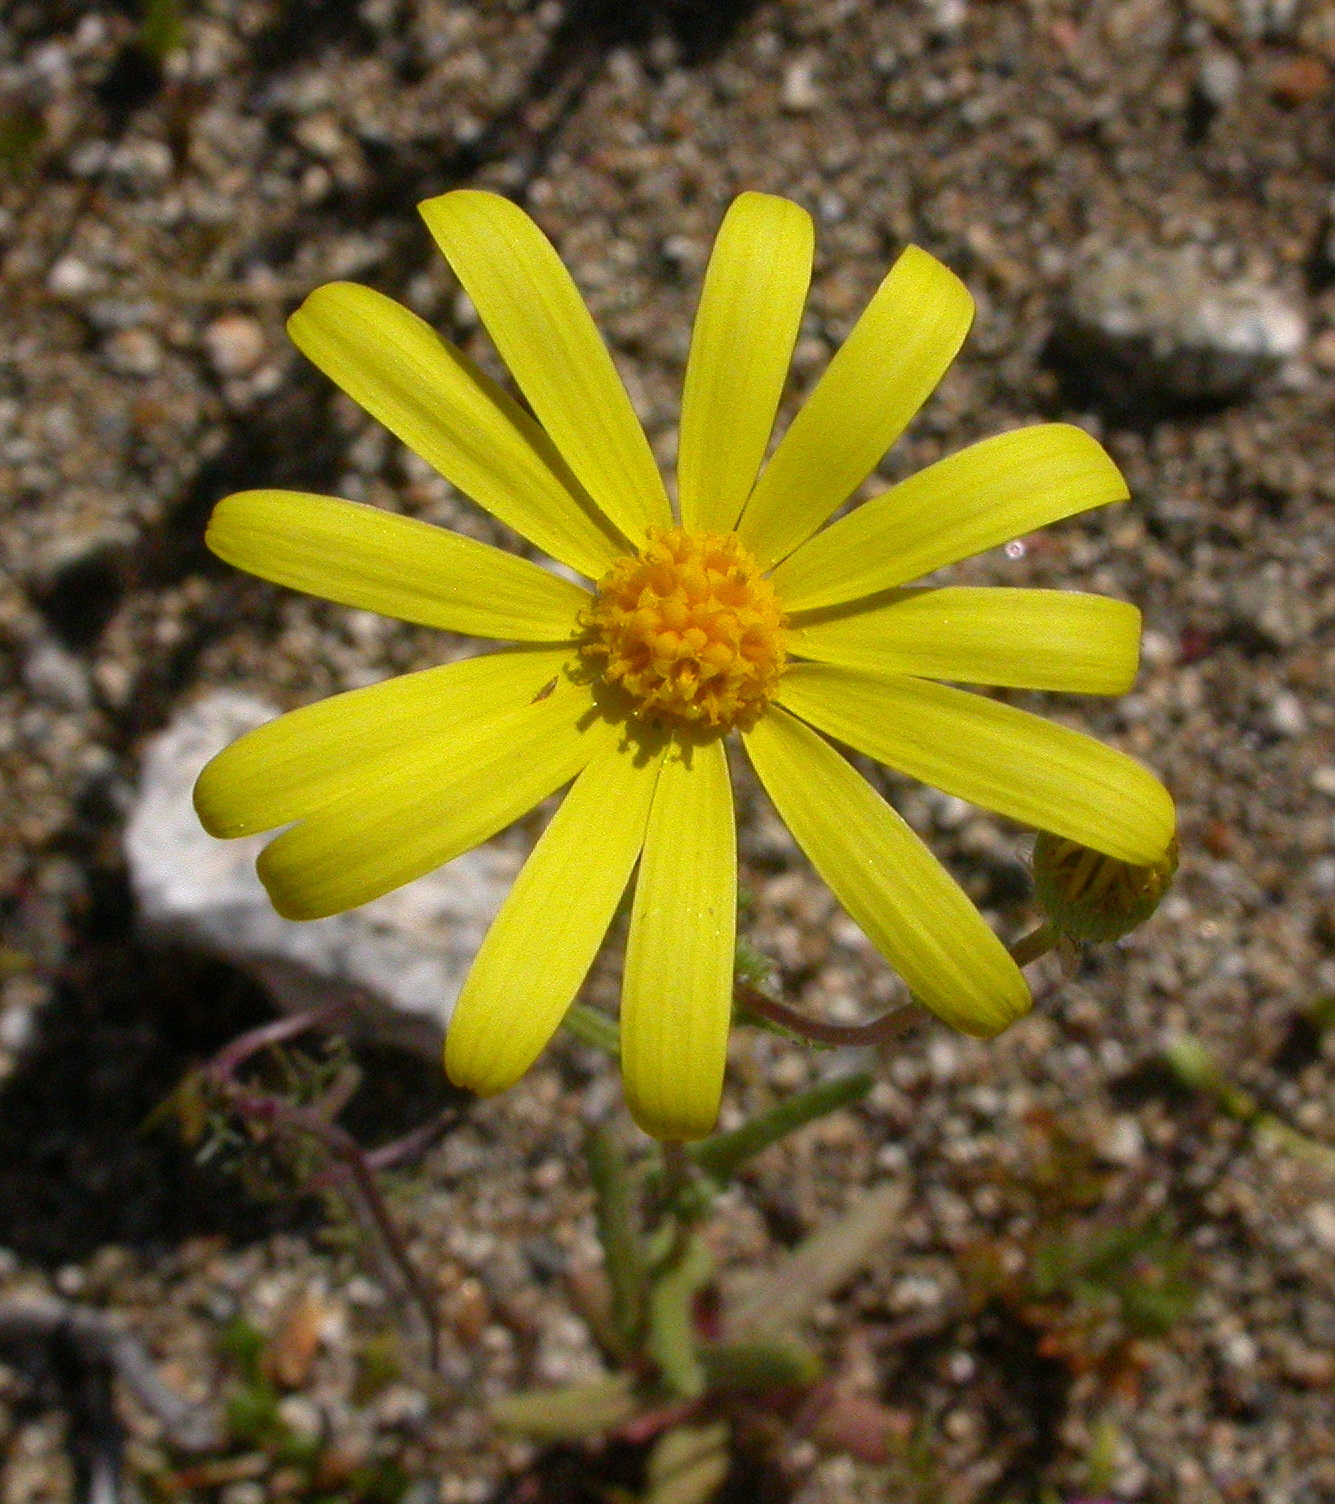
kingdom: Plantae
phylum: Tracheophyta
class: Magnoliopsida
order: Asterales
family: Asteraceae
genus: Senecio
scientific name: Senecio californicus
